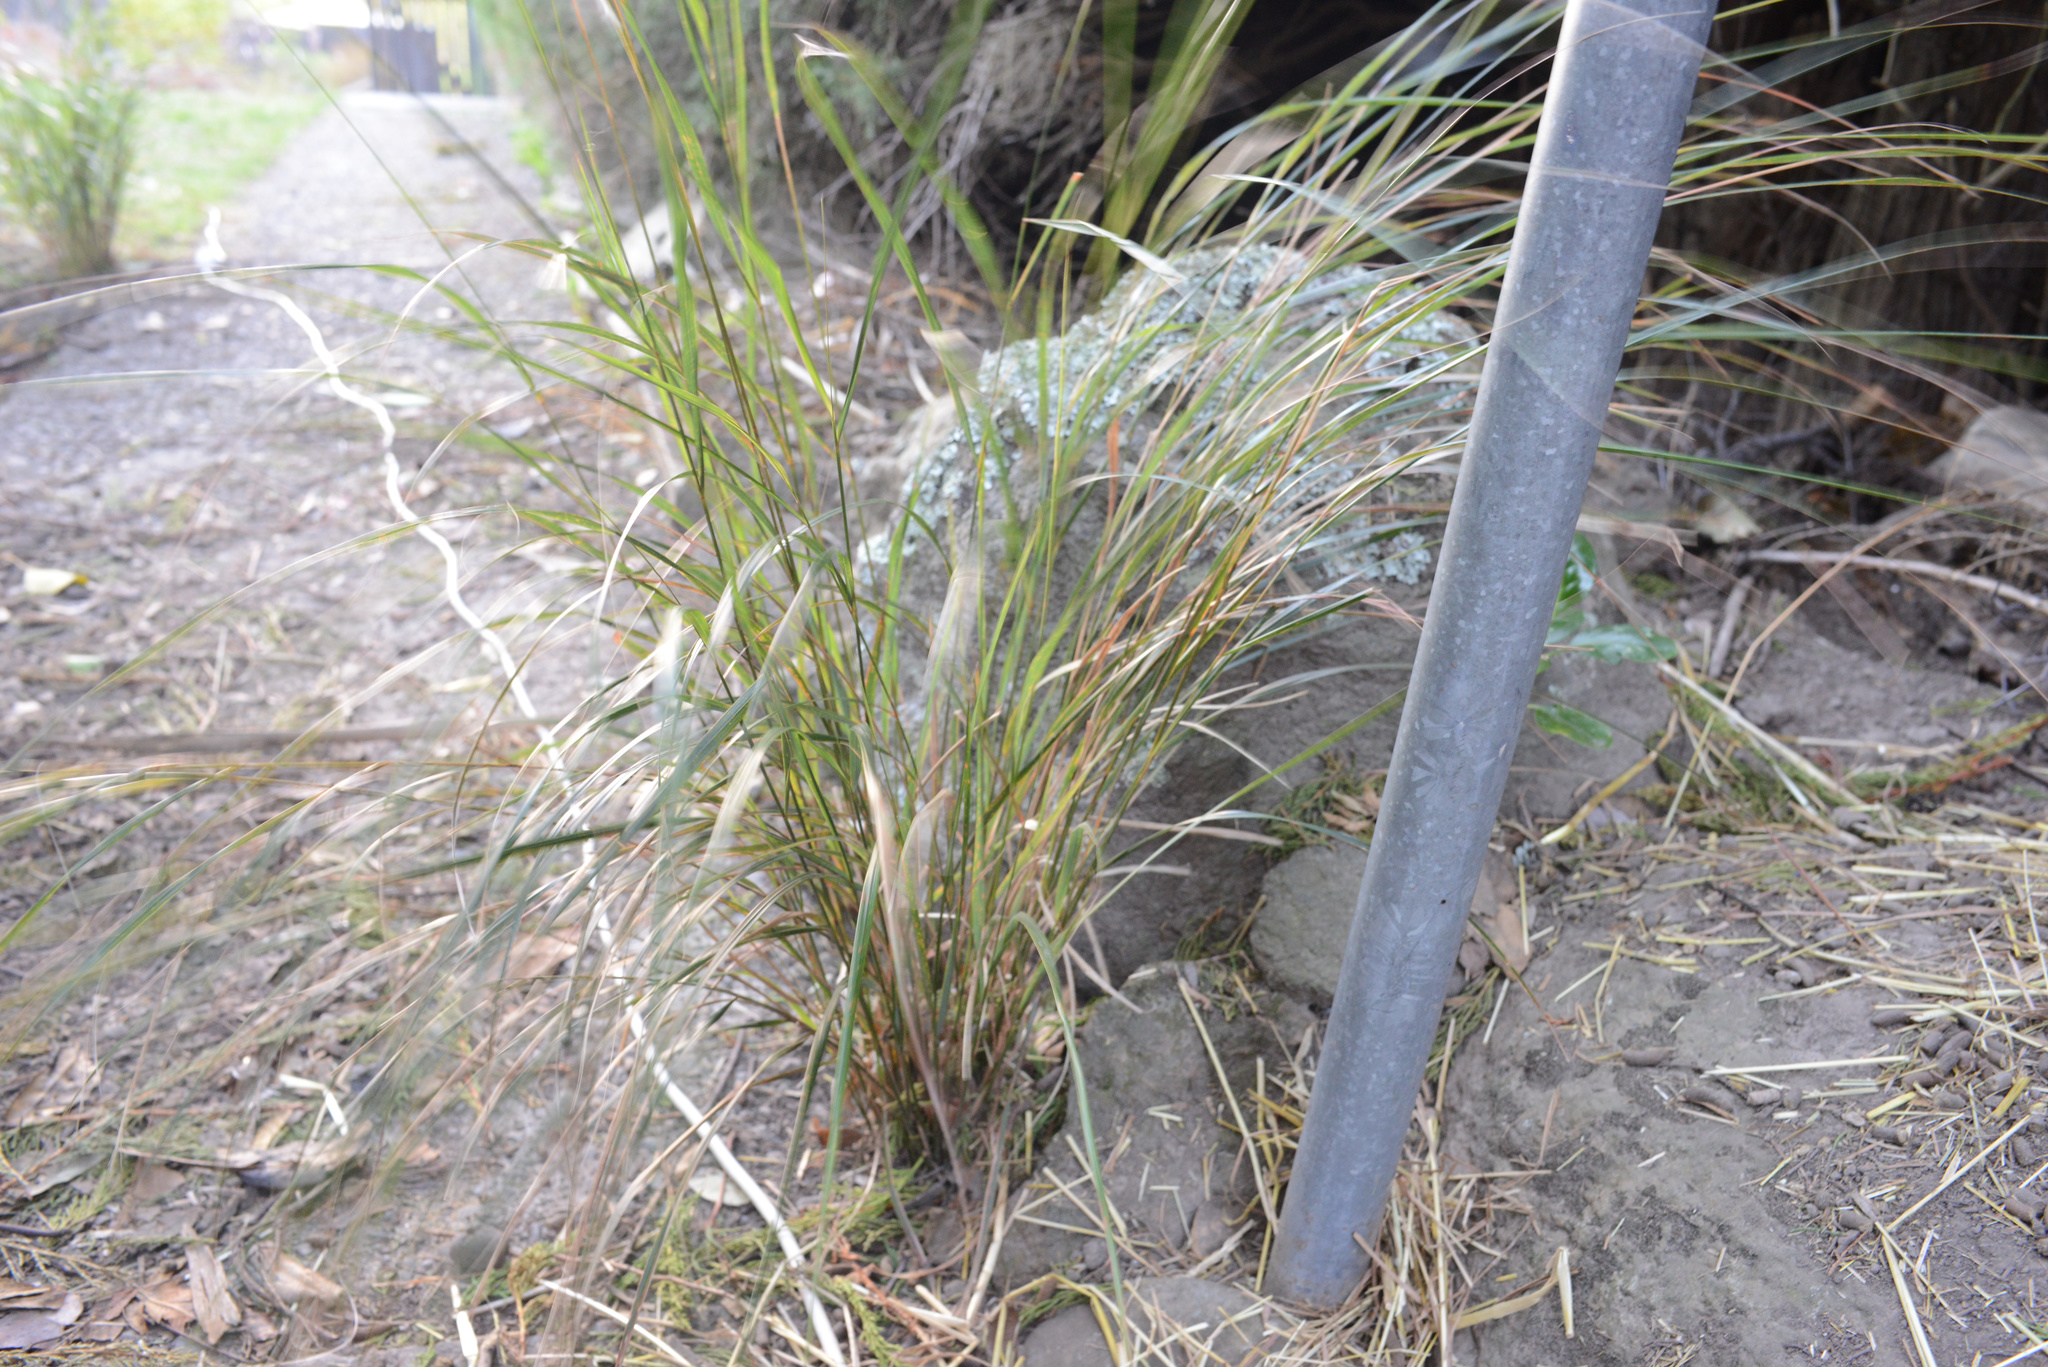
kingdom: Plantae
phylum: Tracheophyta
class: Liliopsida
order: Poales
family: Poaceae
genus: Anemanthele
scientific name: Anemanthele lessoniana
